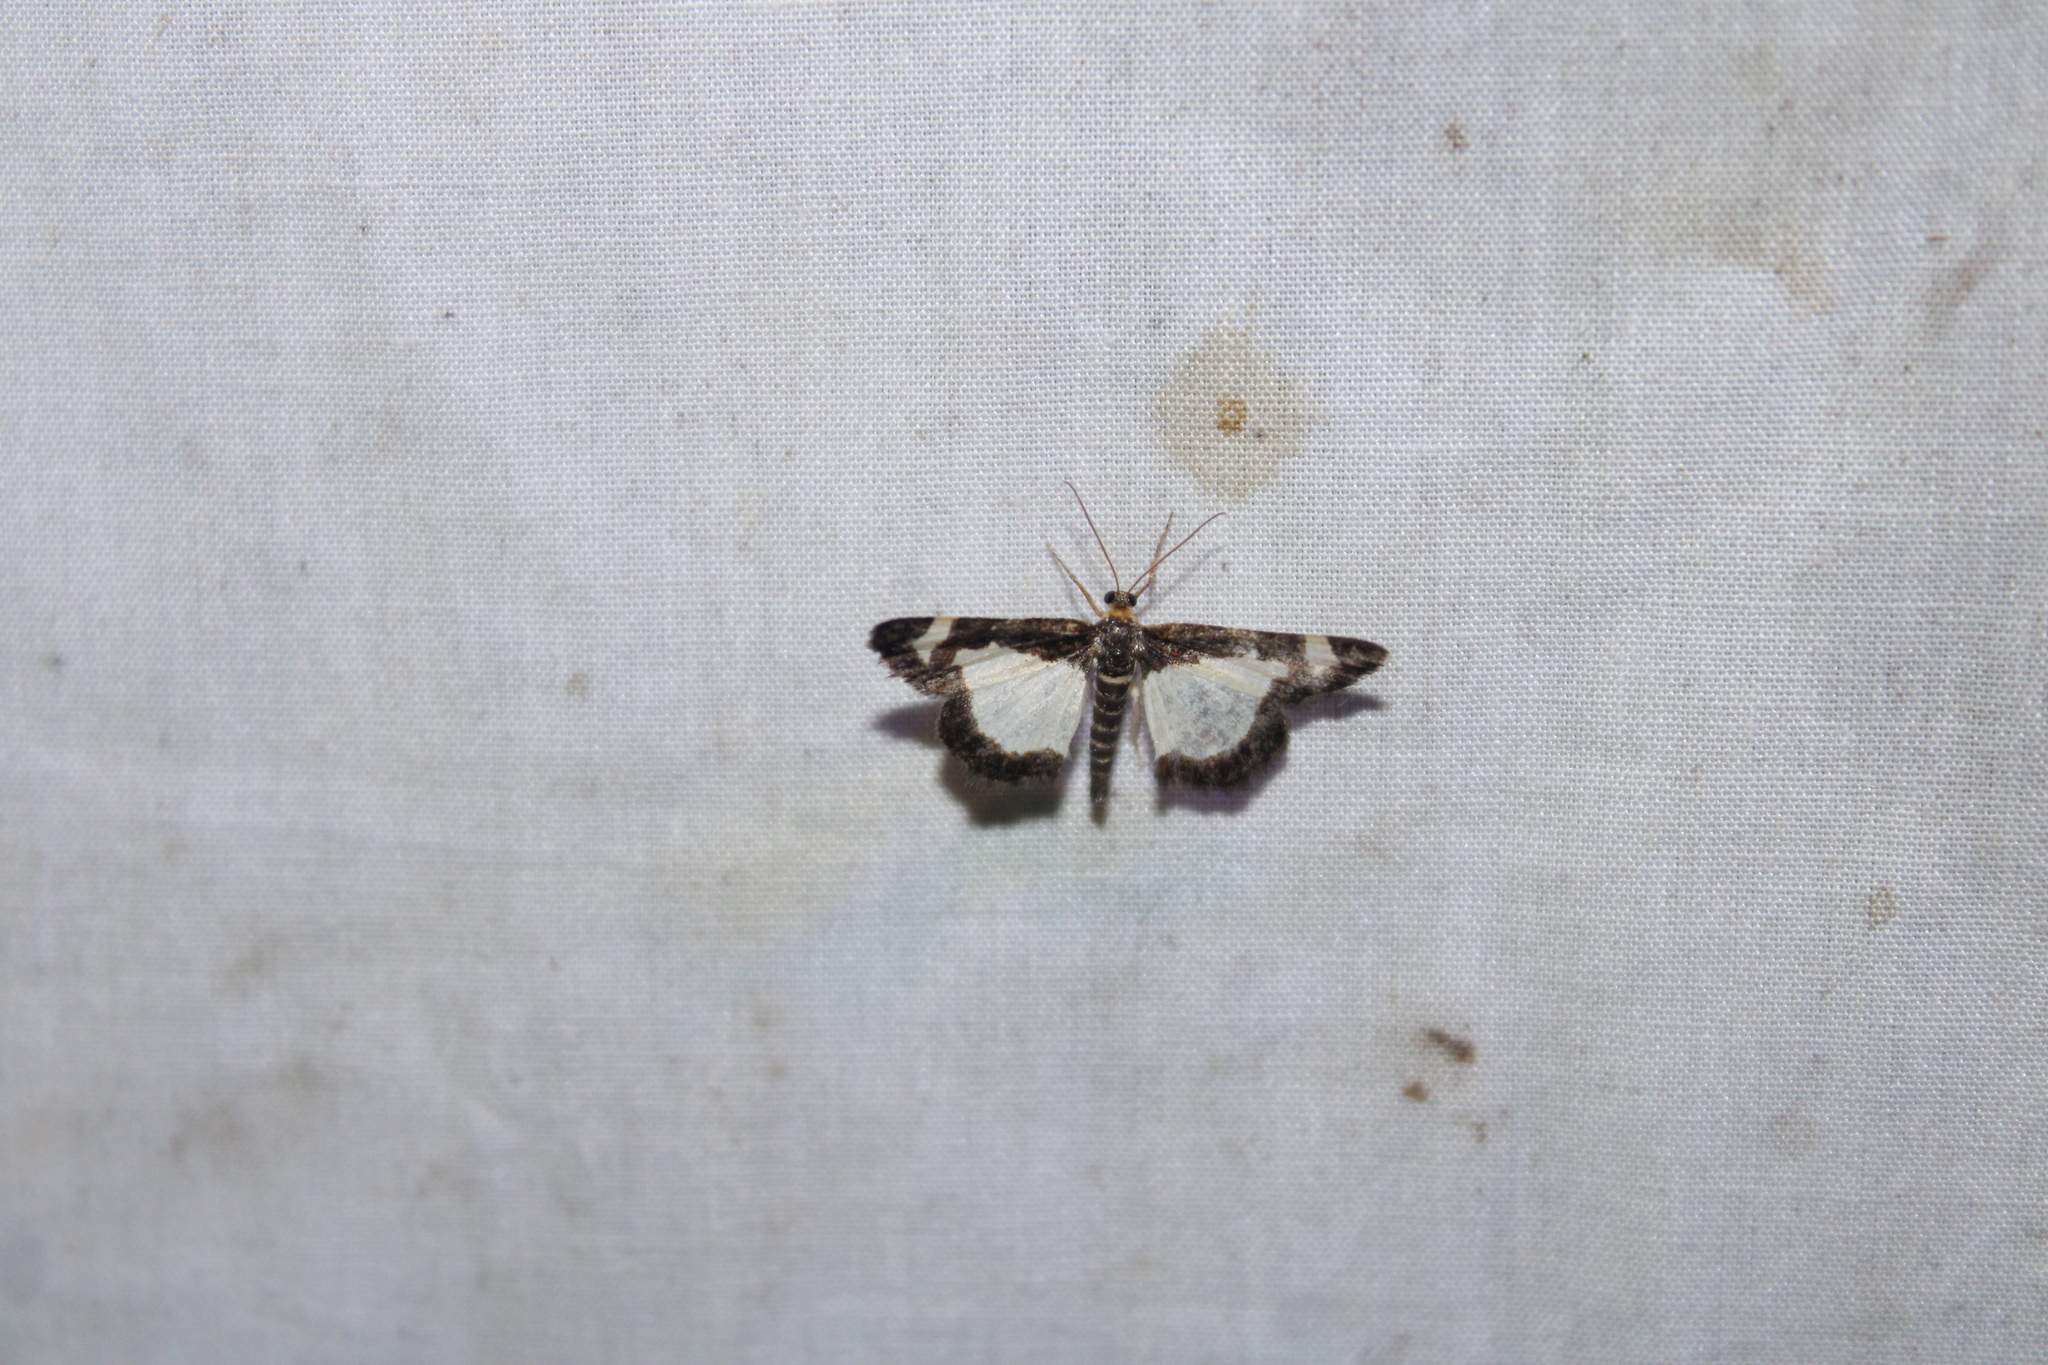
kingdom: Animalia
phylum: Arthropoda
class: Insecta
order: Lepidoptera
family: Geometridae
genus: Heliomata
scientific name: Heliomata cycladata
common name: Common spring moth
